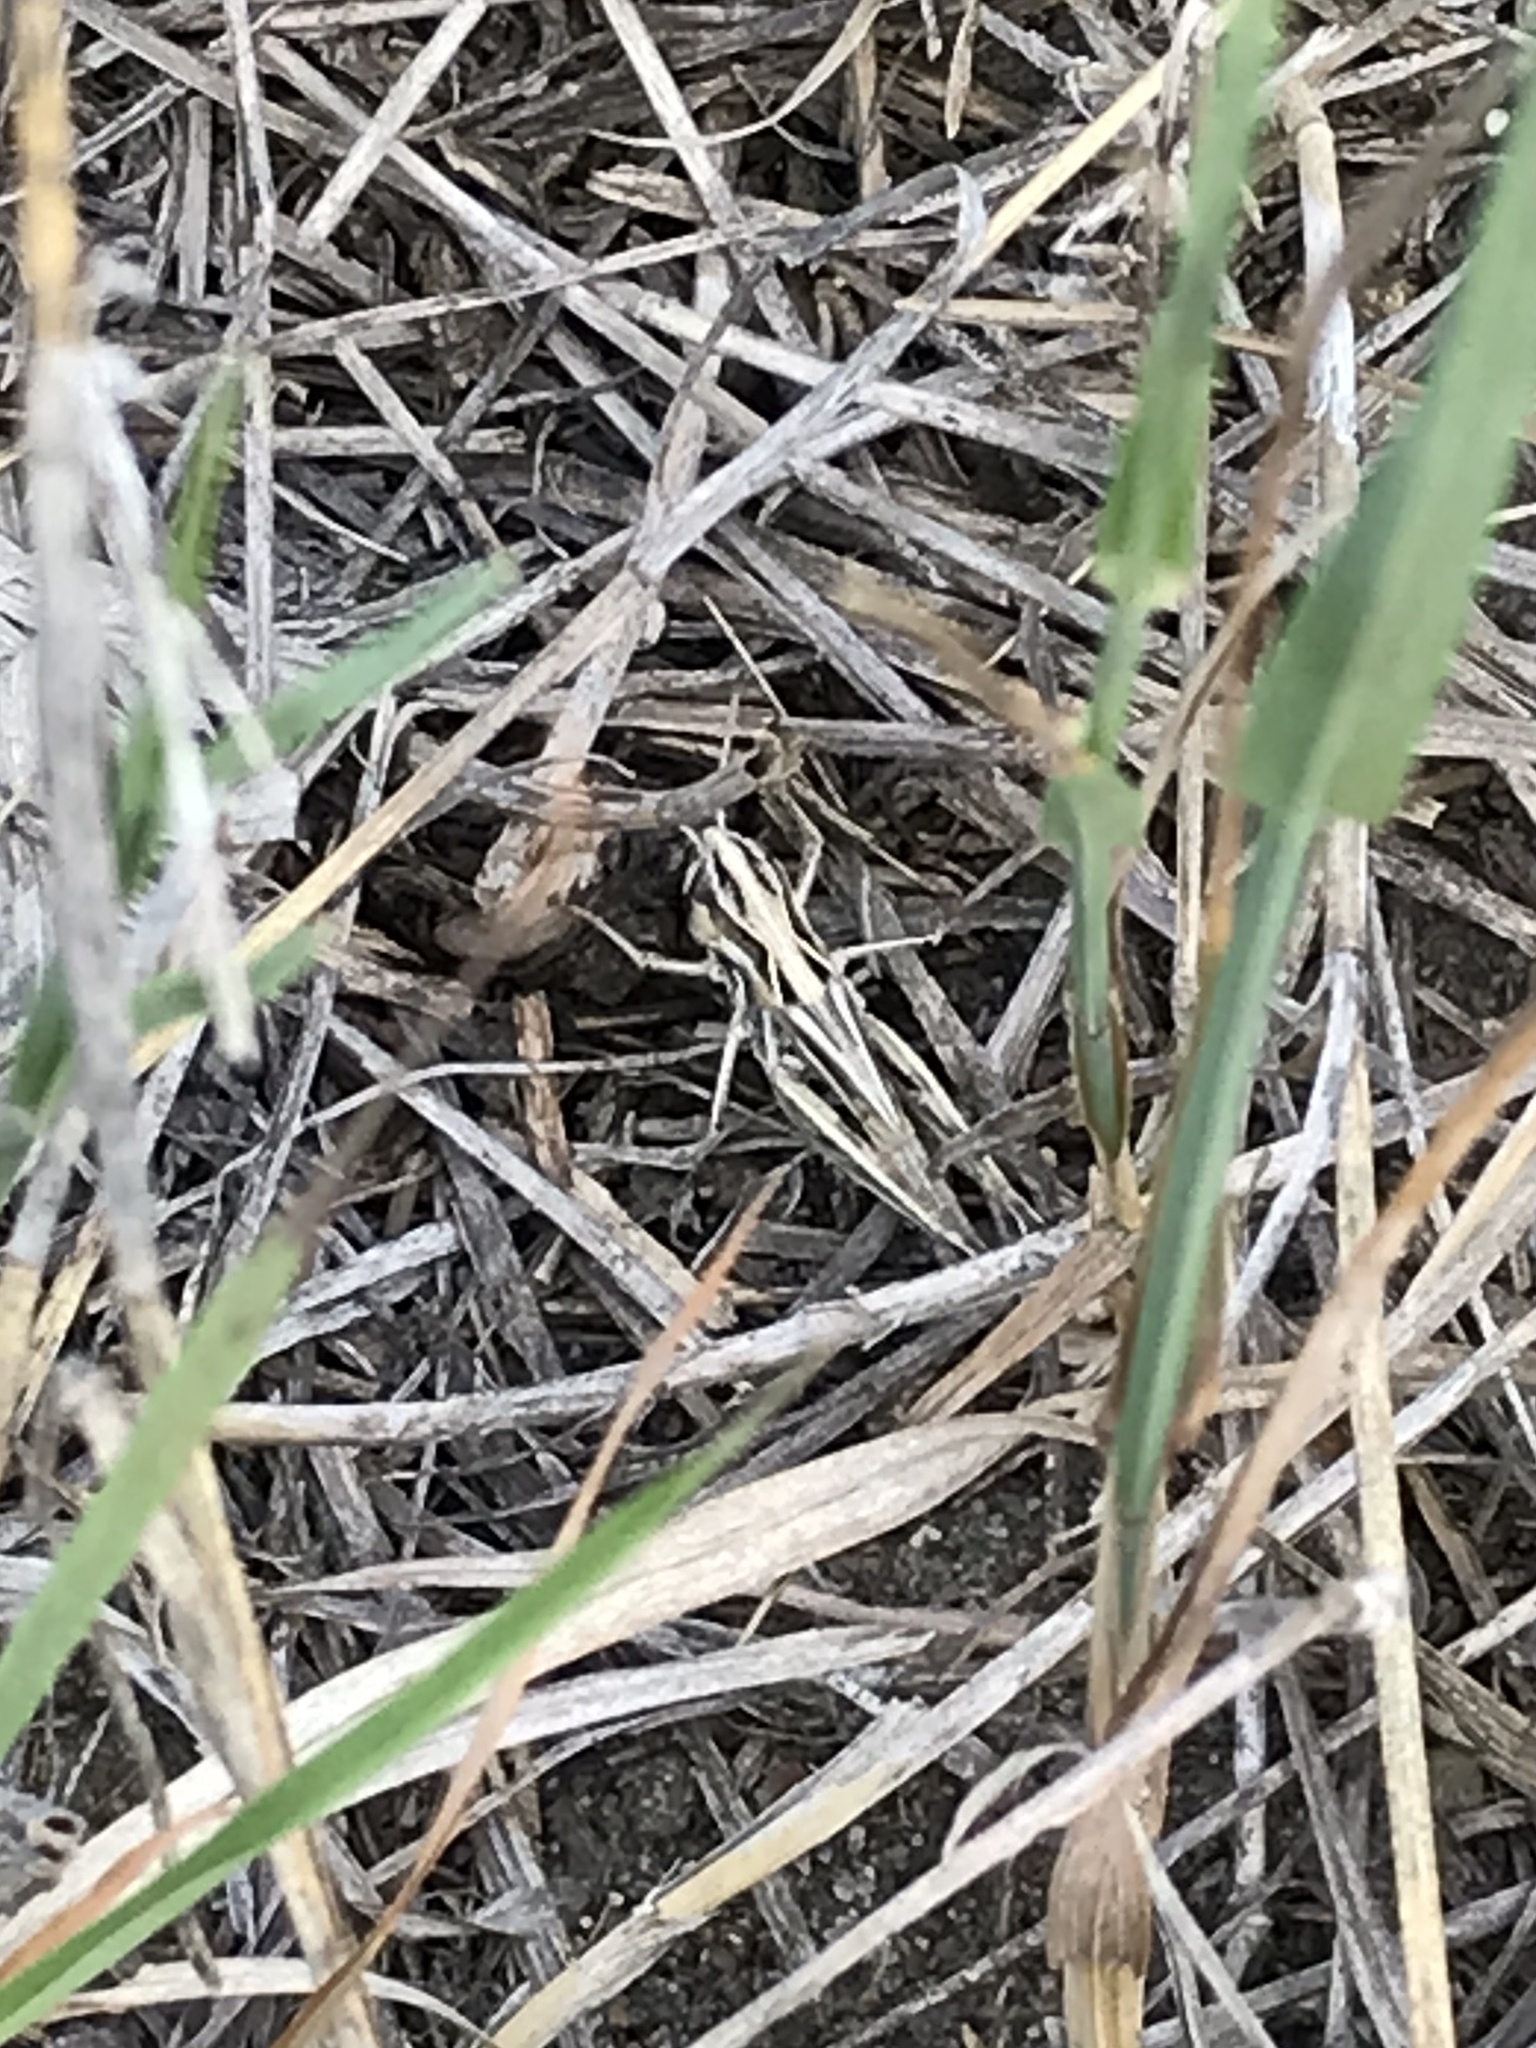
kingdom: Animalia
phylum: Arthropoda
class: Insecta
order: Orthoptera
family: Acrididae
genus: Aeropedellus
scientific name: Aeropedellus clavatus
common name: Clubhorned grasshopper
